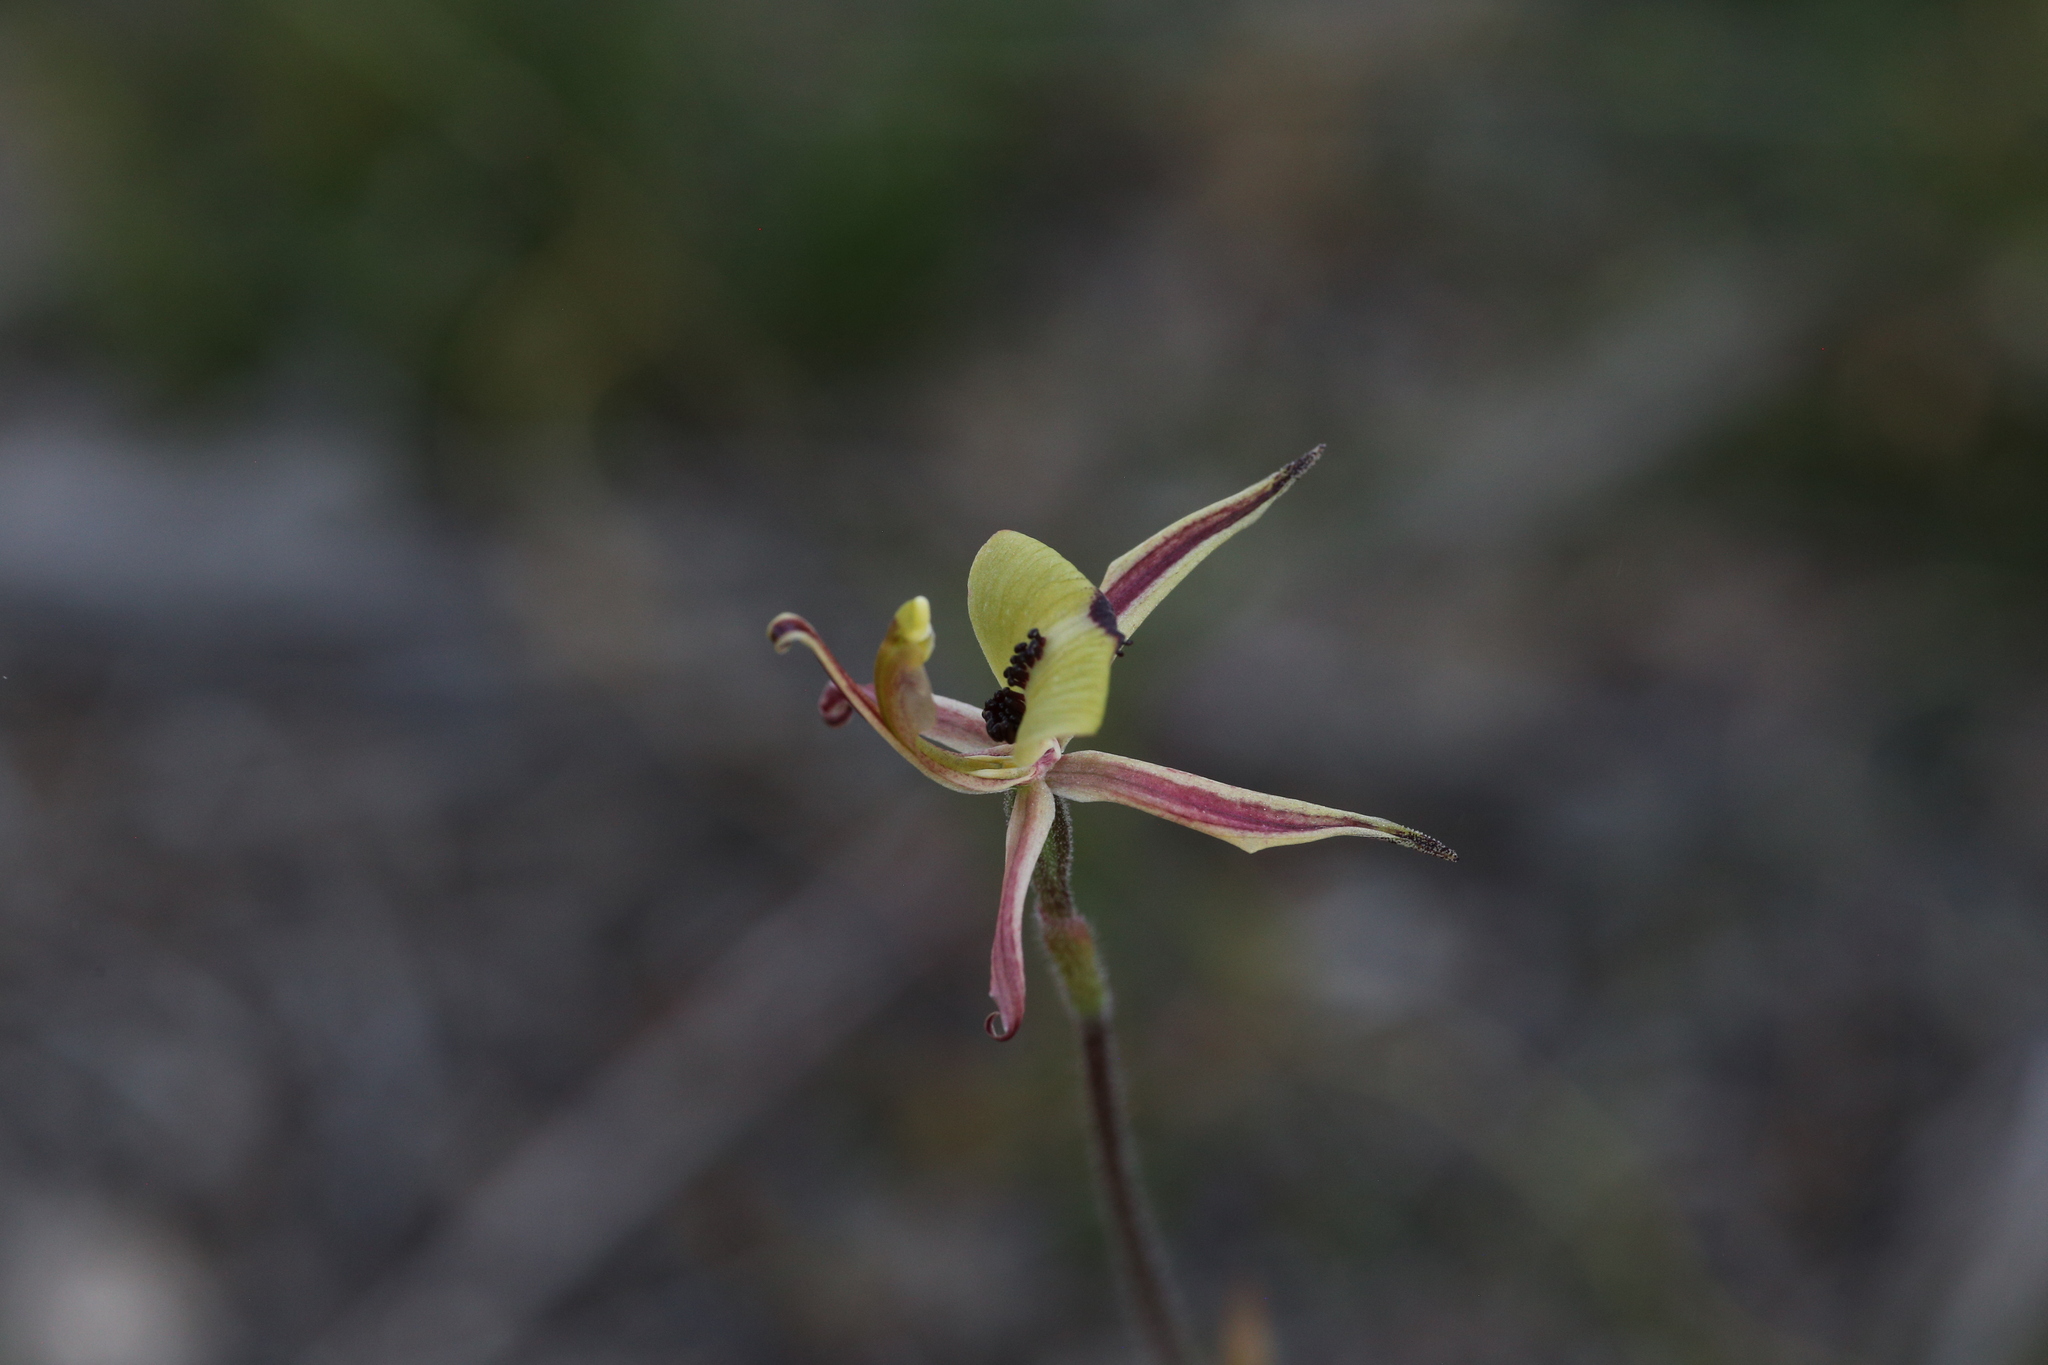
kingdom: Plantae
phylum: Tracheophyta
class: Liliopsida
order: Asparagales
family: Orchidaceae
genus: Caladenia
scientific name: Caladenia roei
